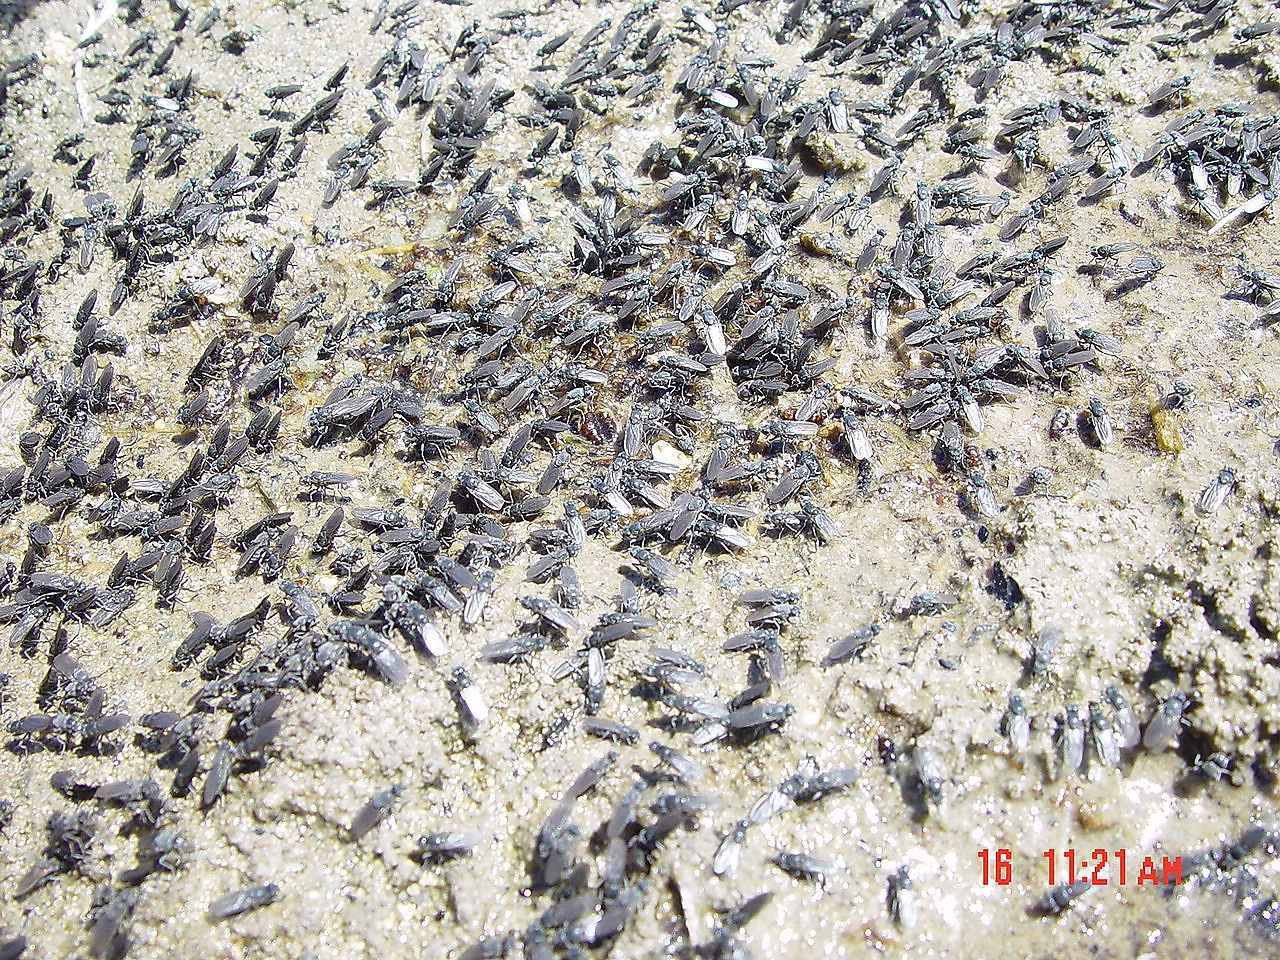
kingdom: Animalia
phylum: Arthropoda
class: Insecta
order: Diptera
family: Ephydridae
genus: Cirrula
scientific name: Cirrula hians
